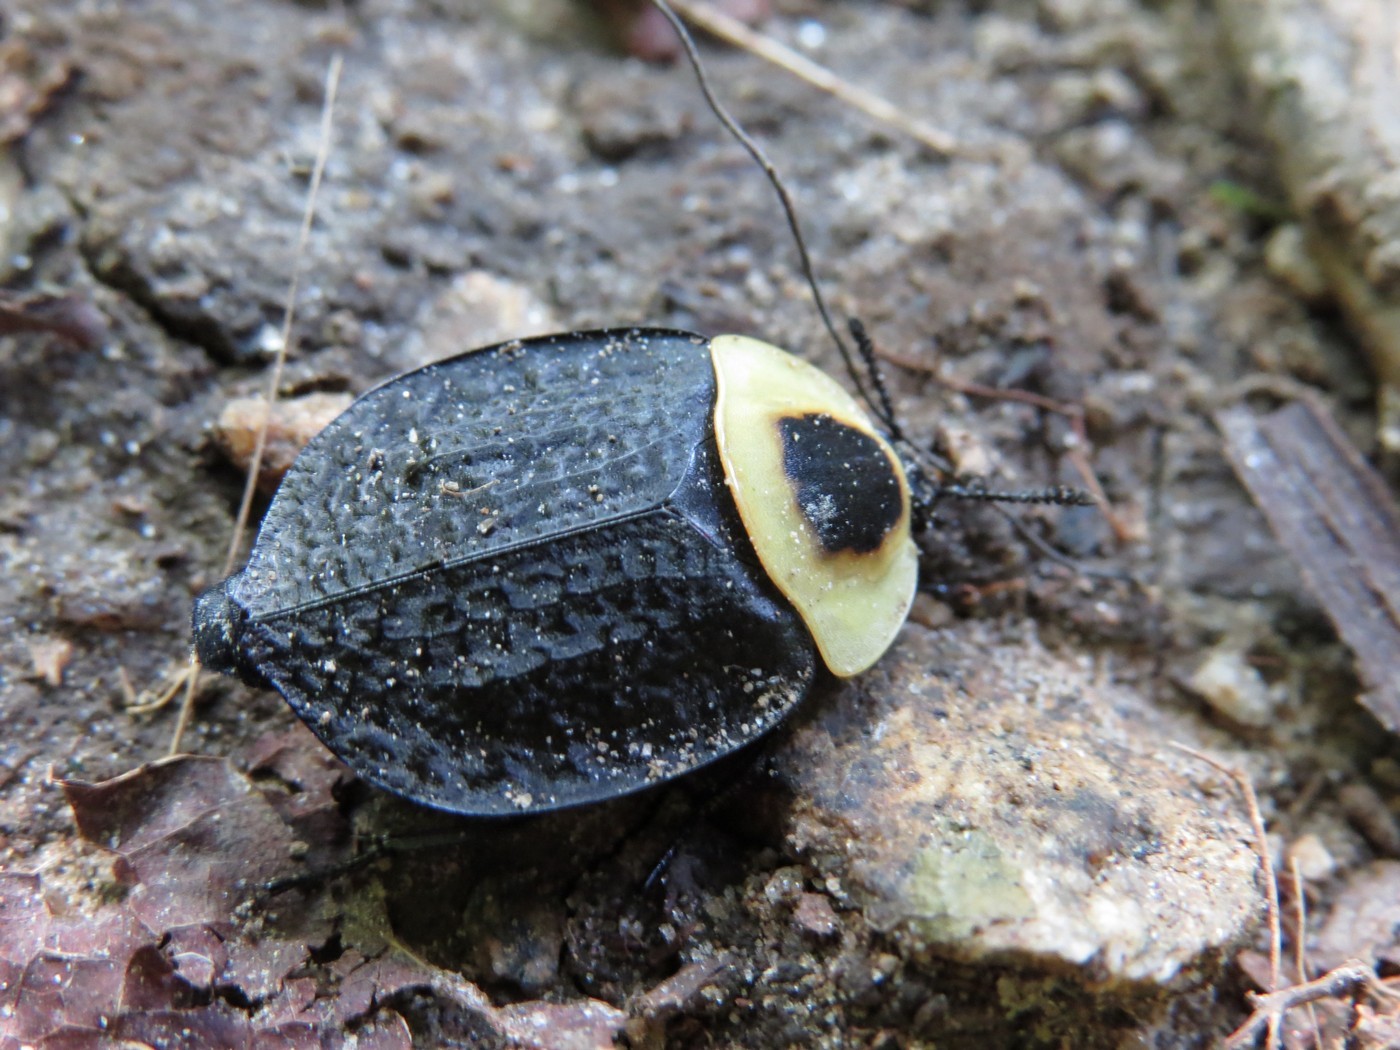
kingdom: Animalia
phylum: Arthropoda
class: Insecta
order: Coleoptera
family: Staphylinidae
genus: Necrophila
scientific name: Necrophila americana
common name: American carrion beetle
